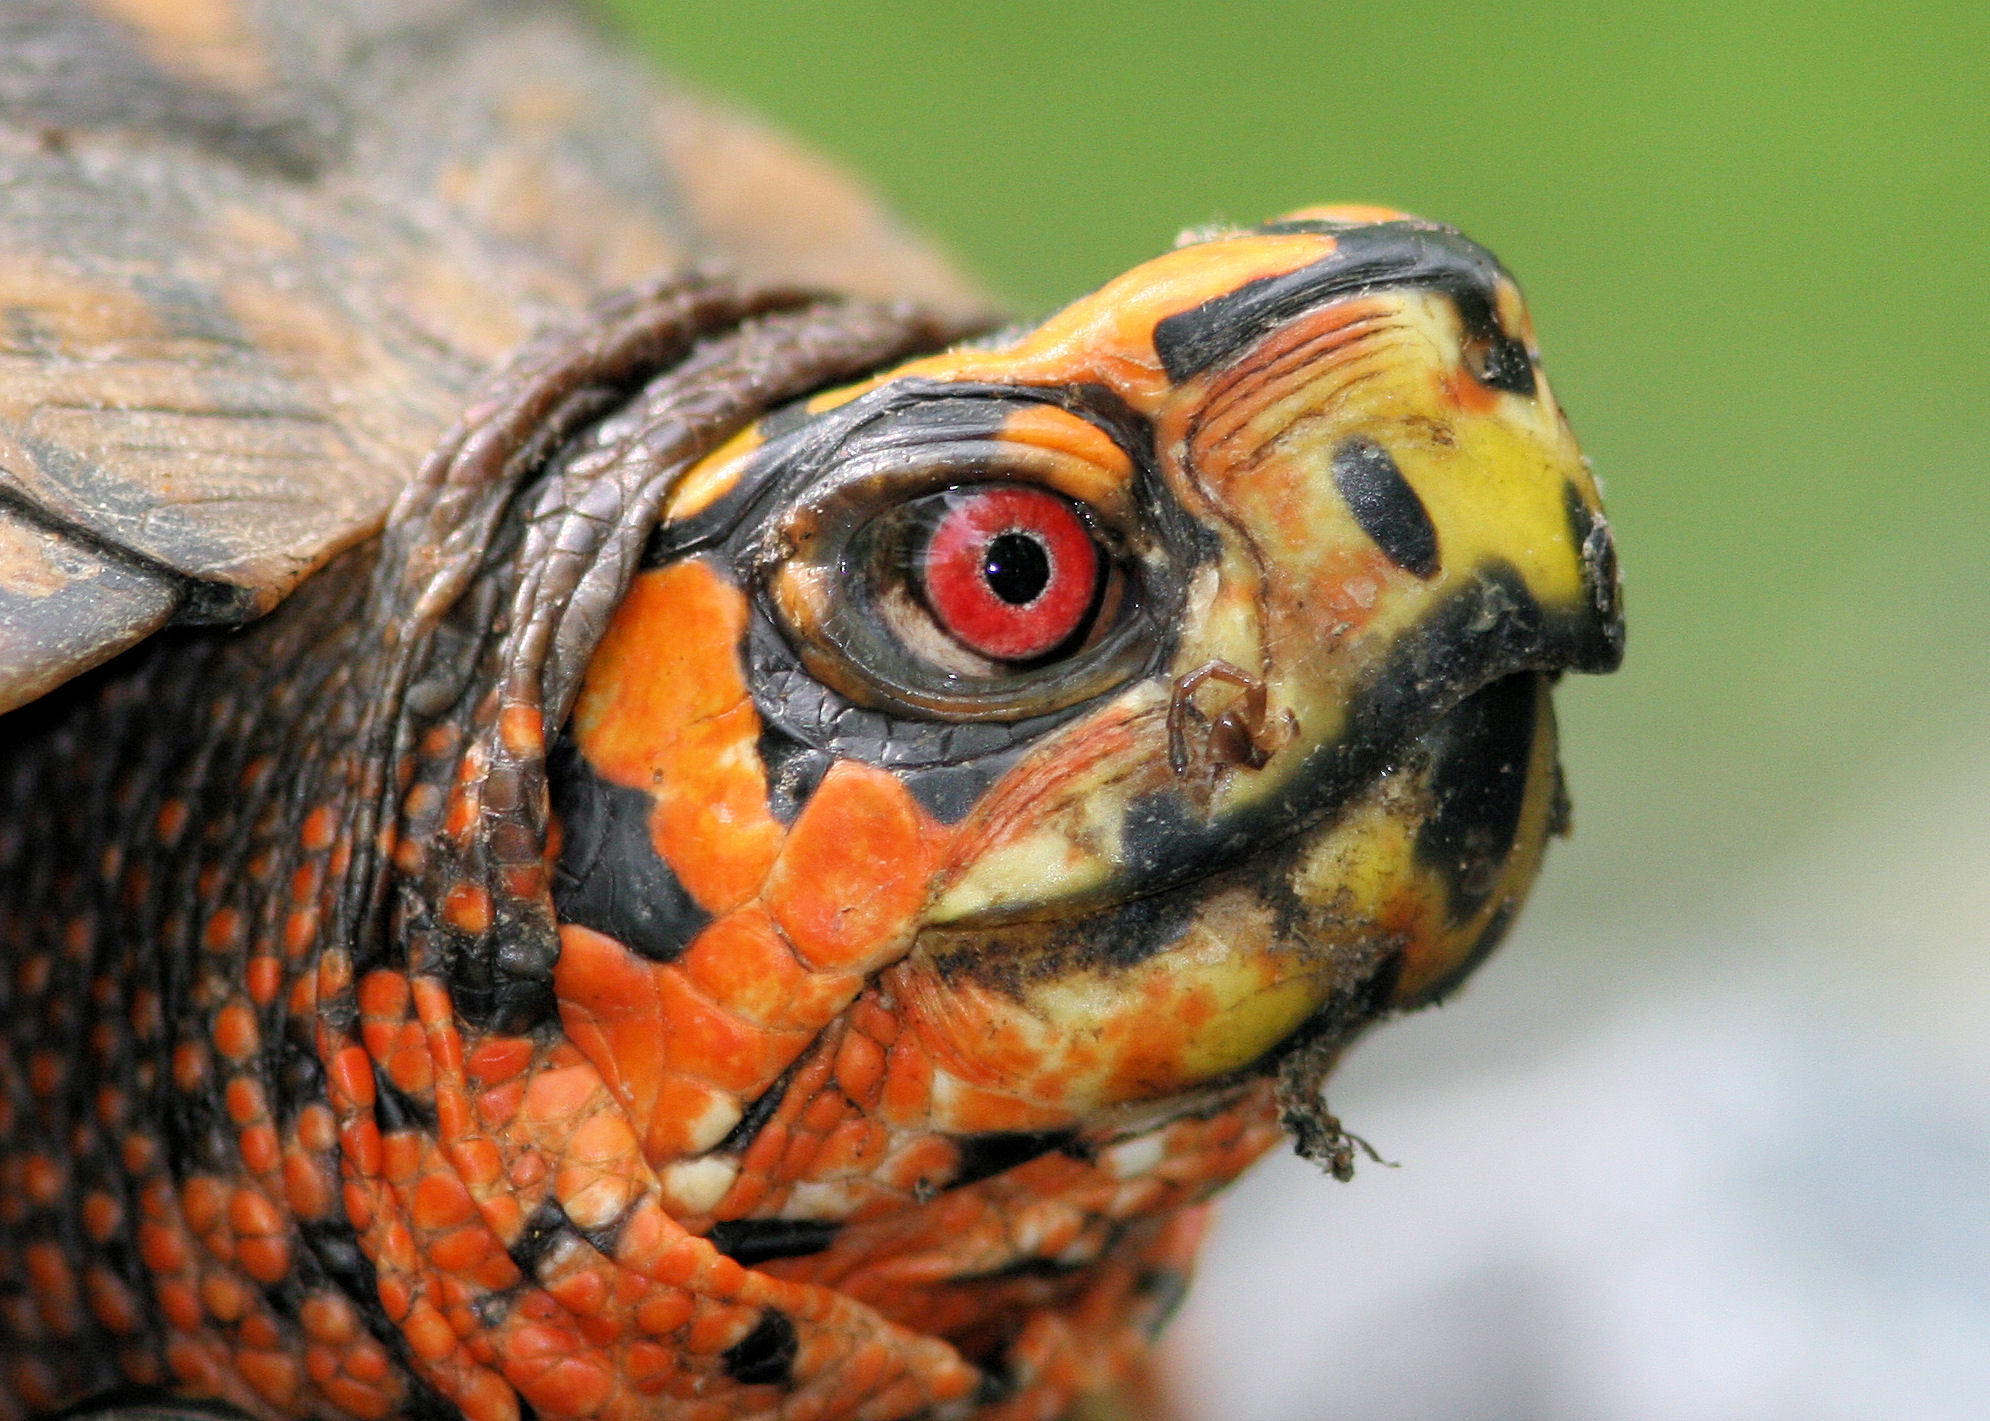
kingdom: Animalia
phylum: Chordata
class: Testudines
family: Emydidae
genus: Terrapene
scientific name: Terrapene carolina
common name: Common box turtle
